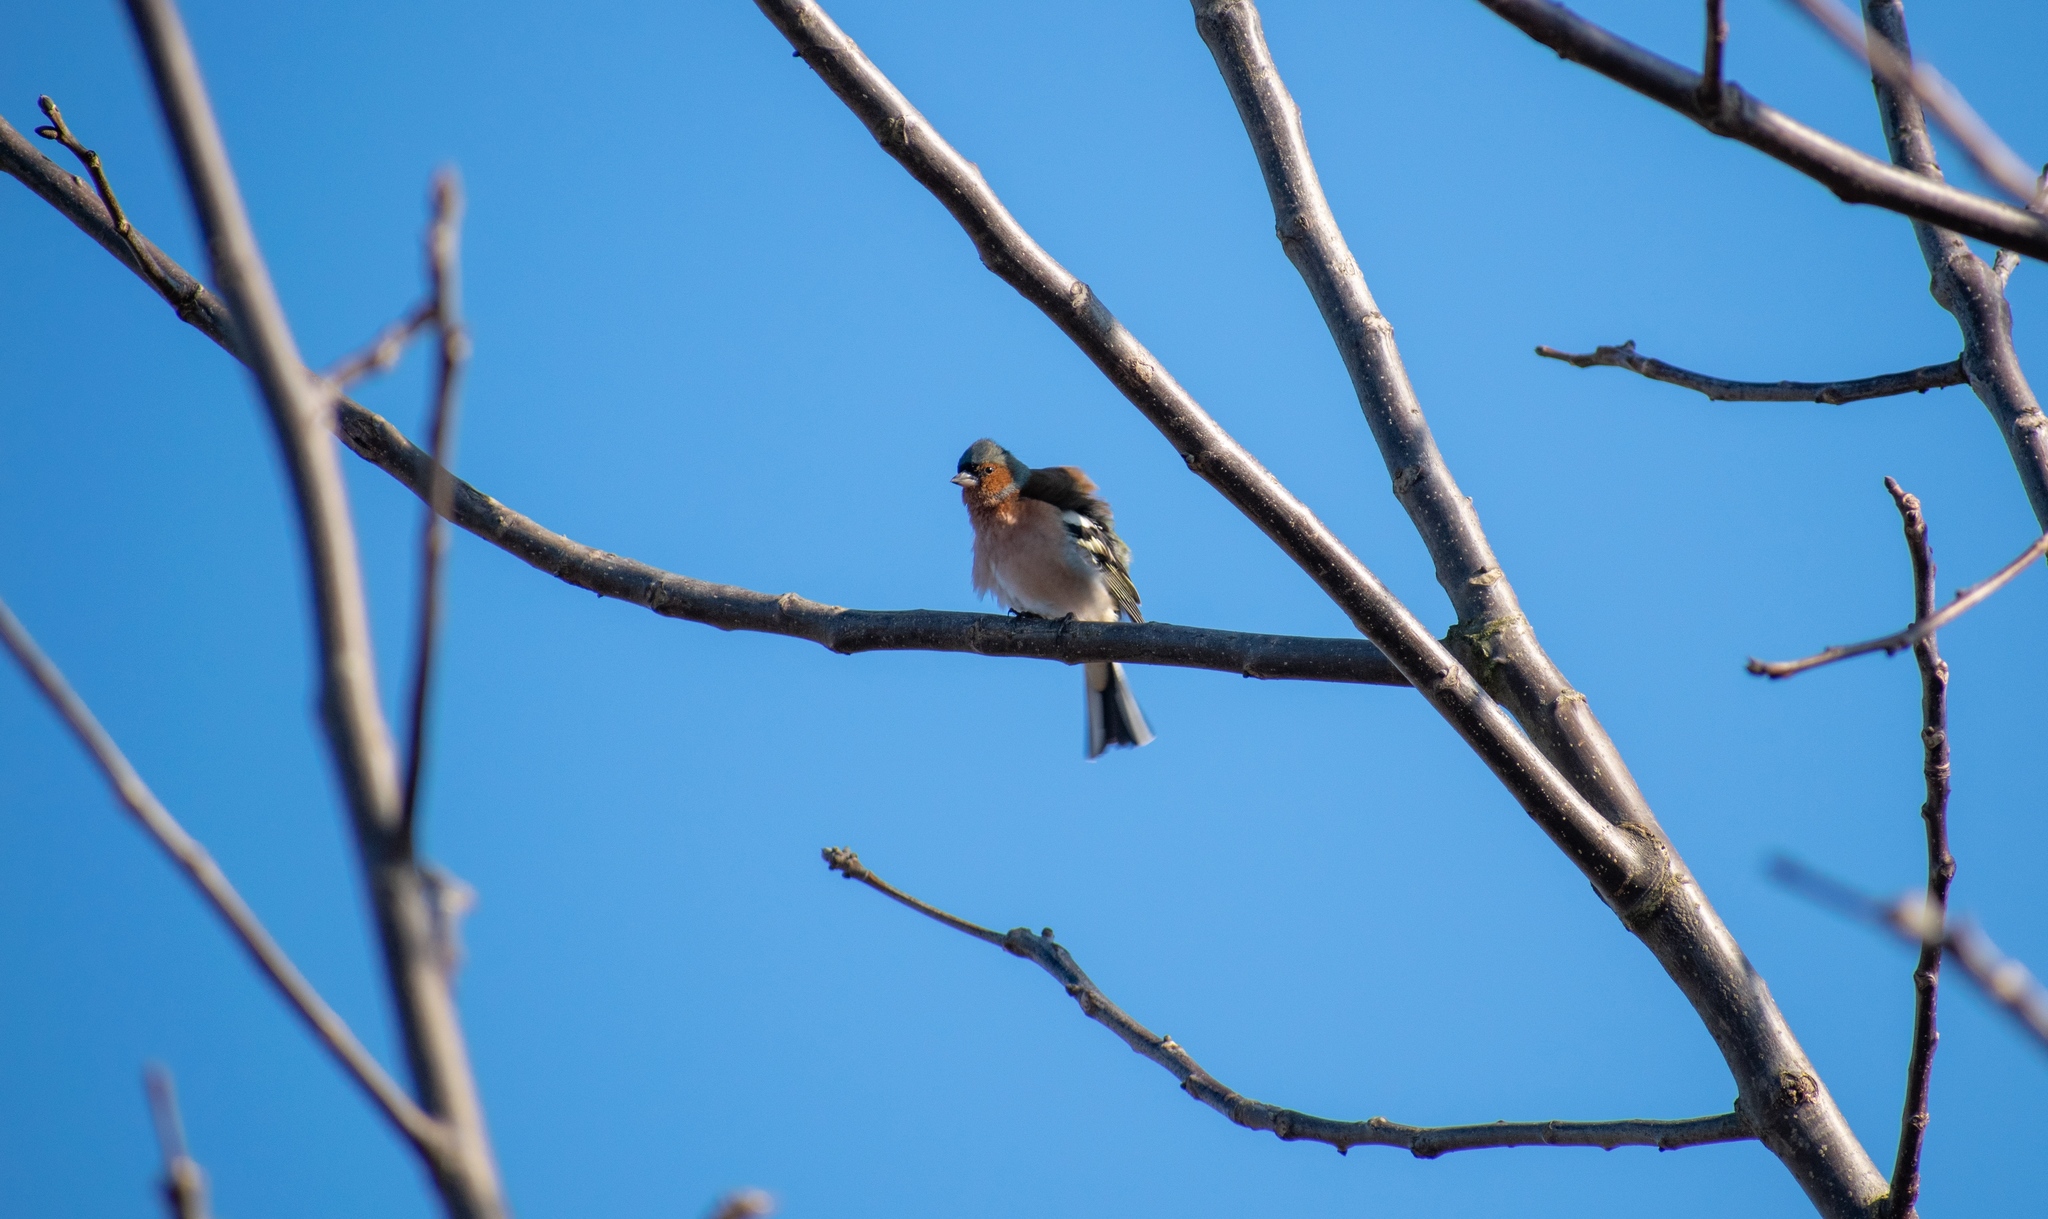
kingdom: Animalia
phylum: Chordata
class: Aves
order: Passeriformes
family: Fringillidae
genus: Fringilla
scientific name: Fringilla coelebs
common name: Common chaffinch
